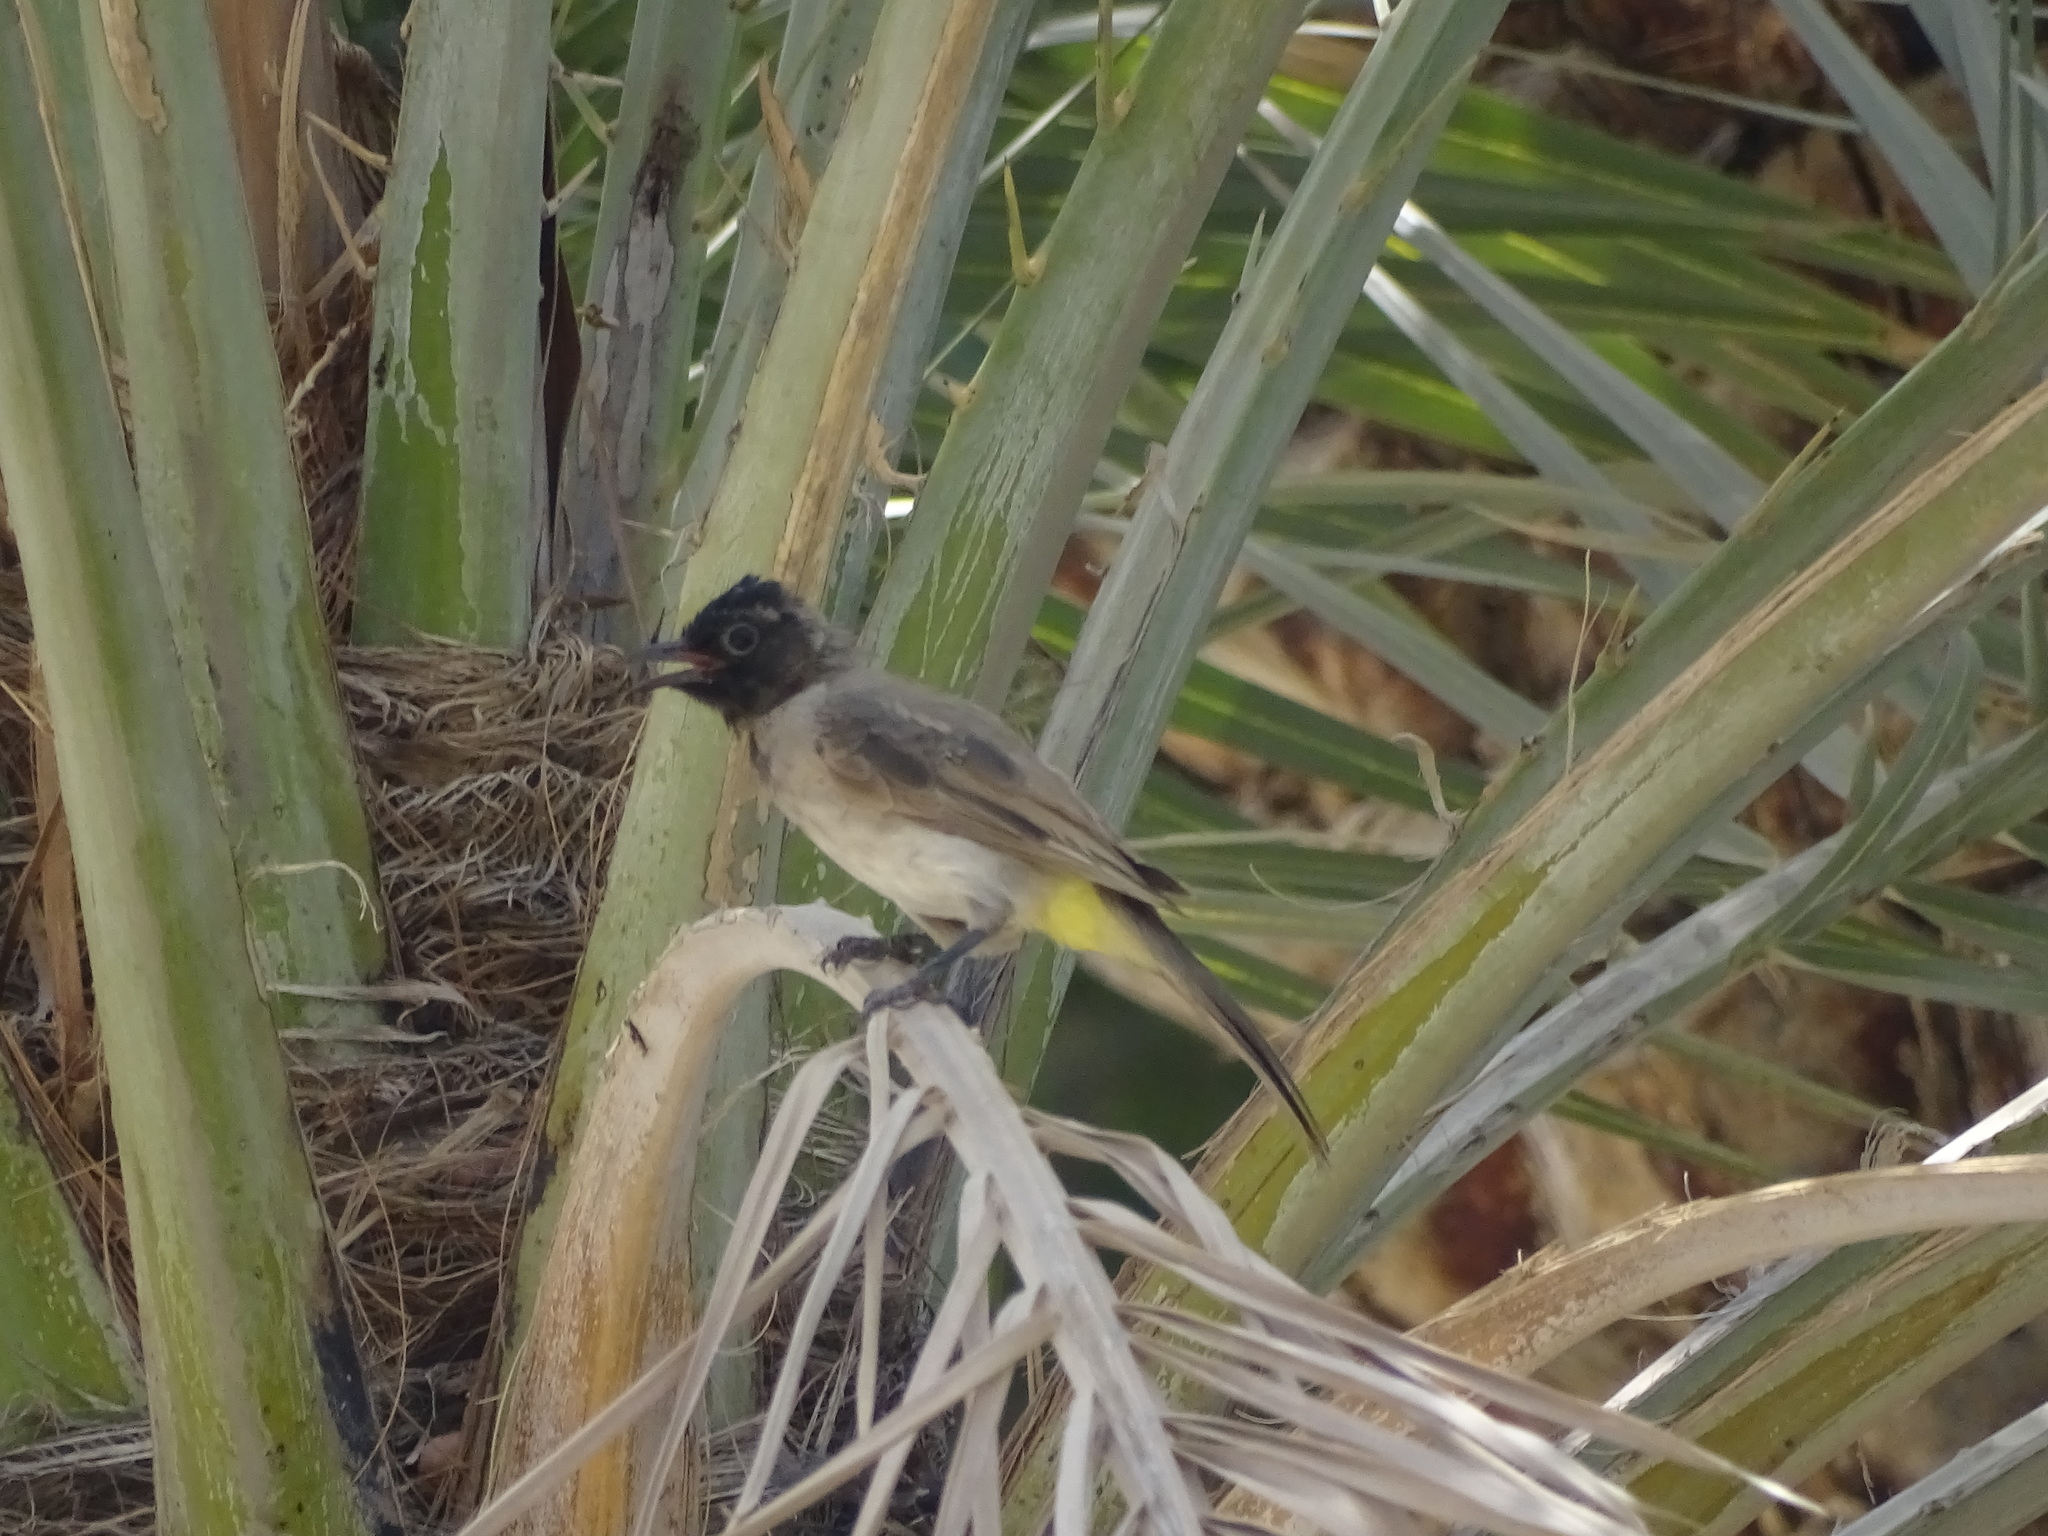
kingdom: Animalia
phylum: Chordata
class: Aves
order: Passeriformes
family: Pycnonotidae
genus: Pycnonotus
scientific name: Pycnonotus xanthopygos
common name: White-spectacled bulbul
